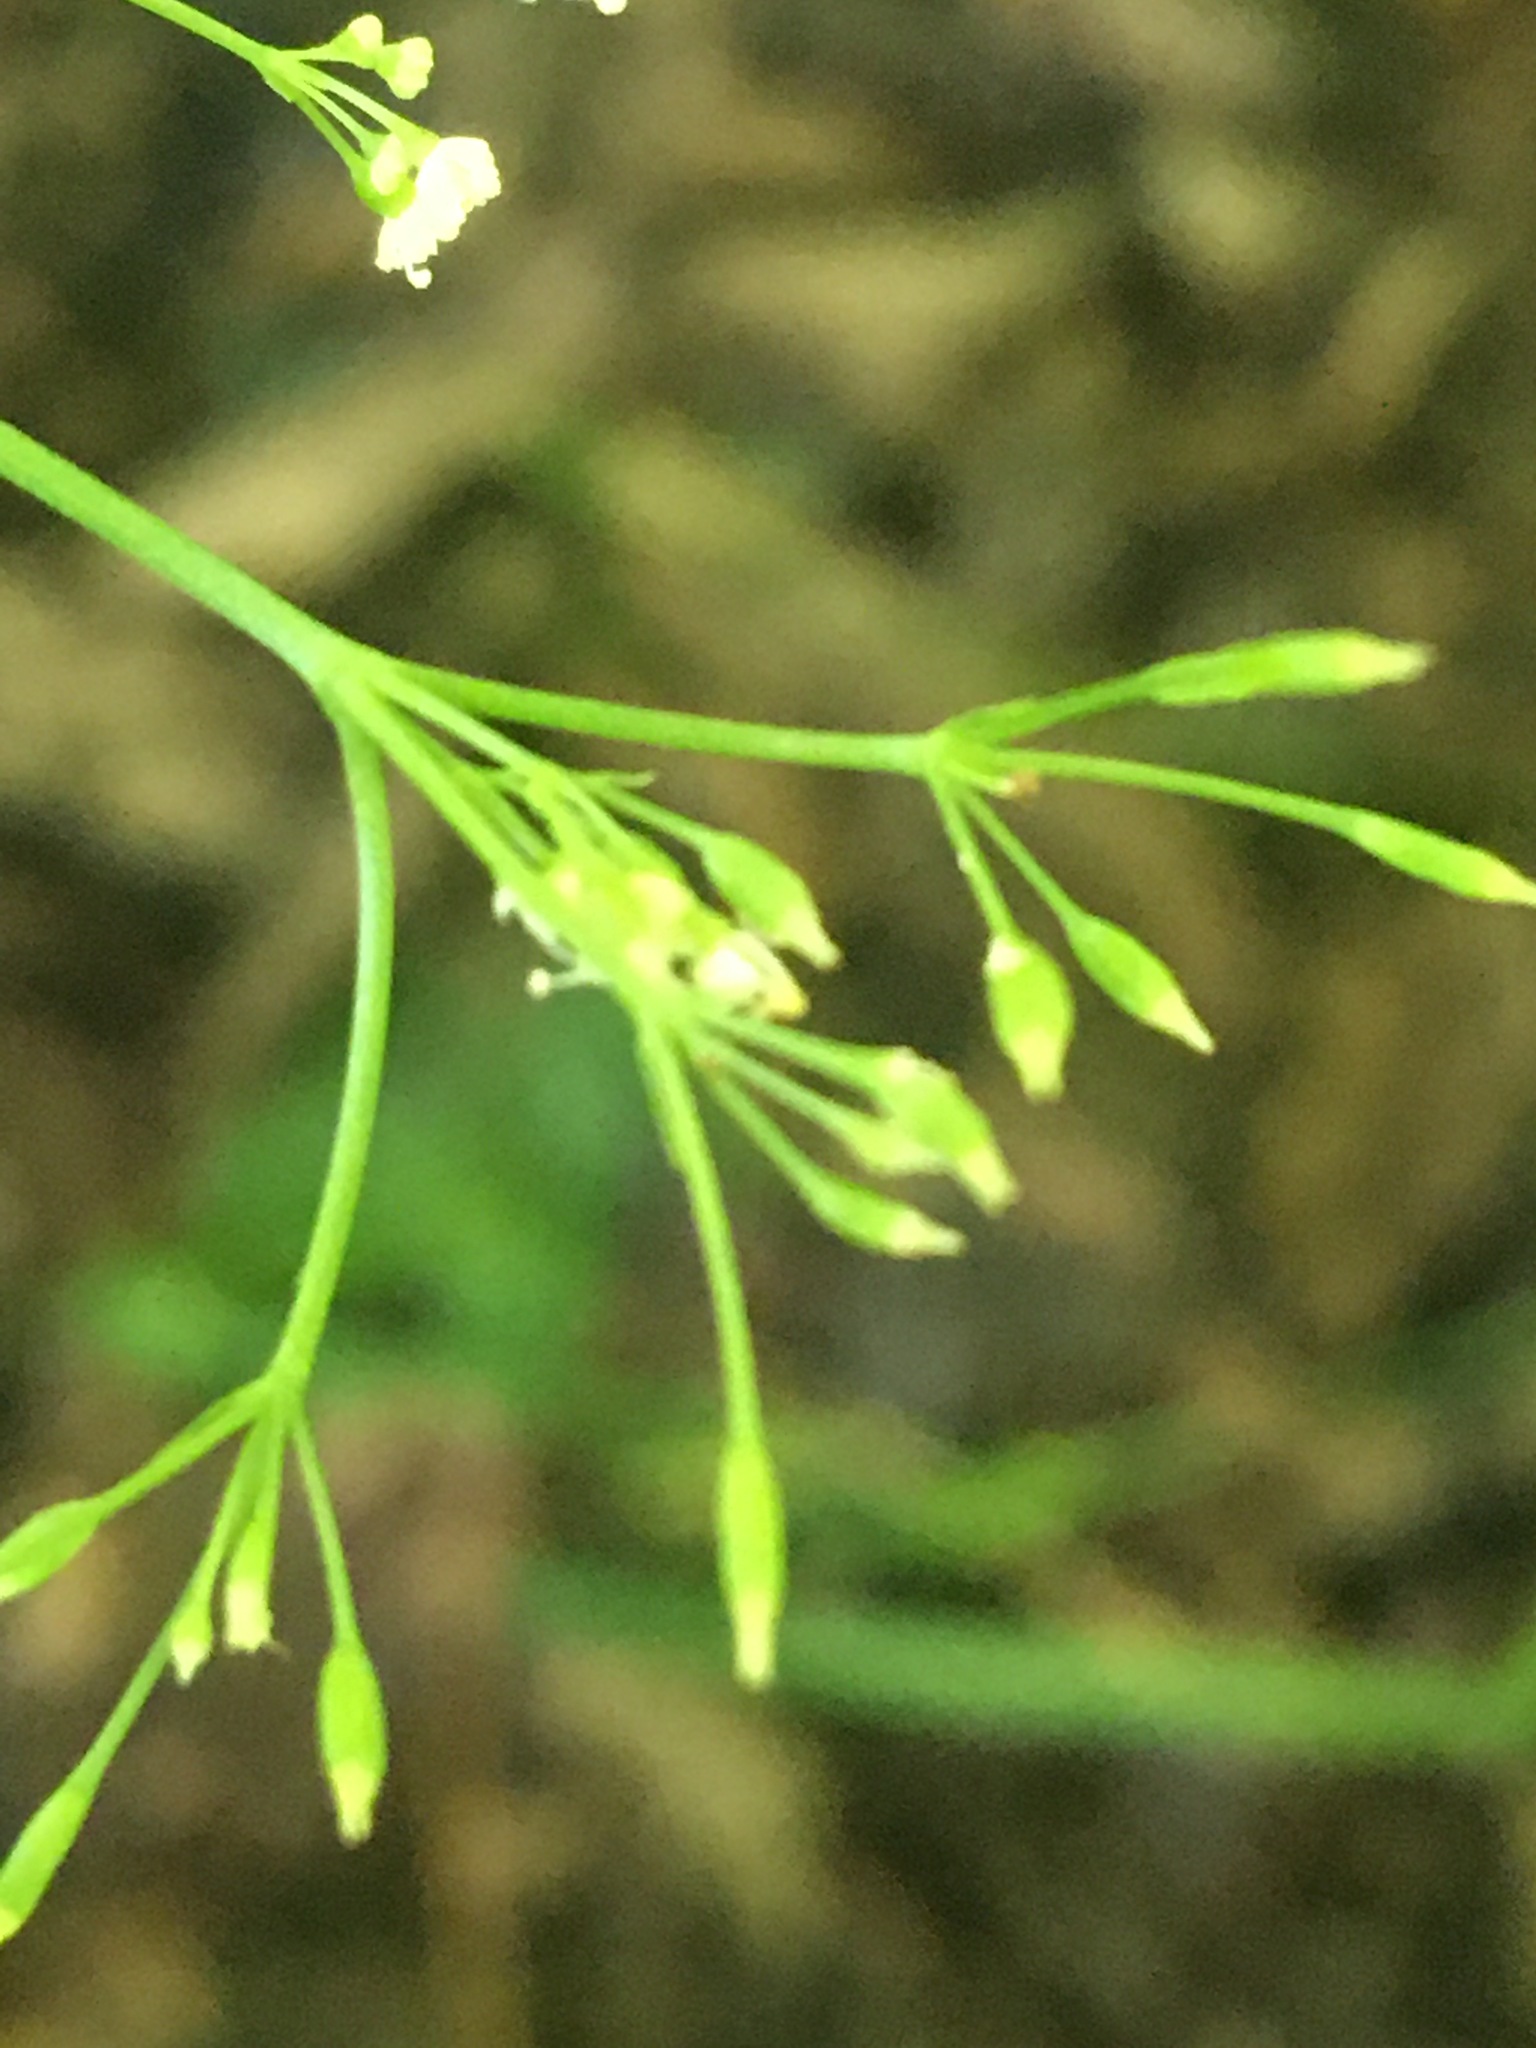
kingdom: Plantae
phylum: Tracheophyta
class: Magnoliopsida
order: Apiales
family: Apiaceae
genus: Cryptotaenia
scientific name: Cryptotaenia canadensis
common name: Honewort
